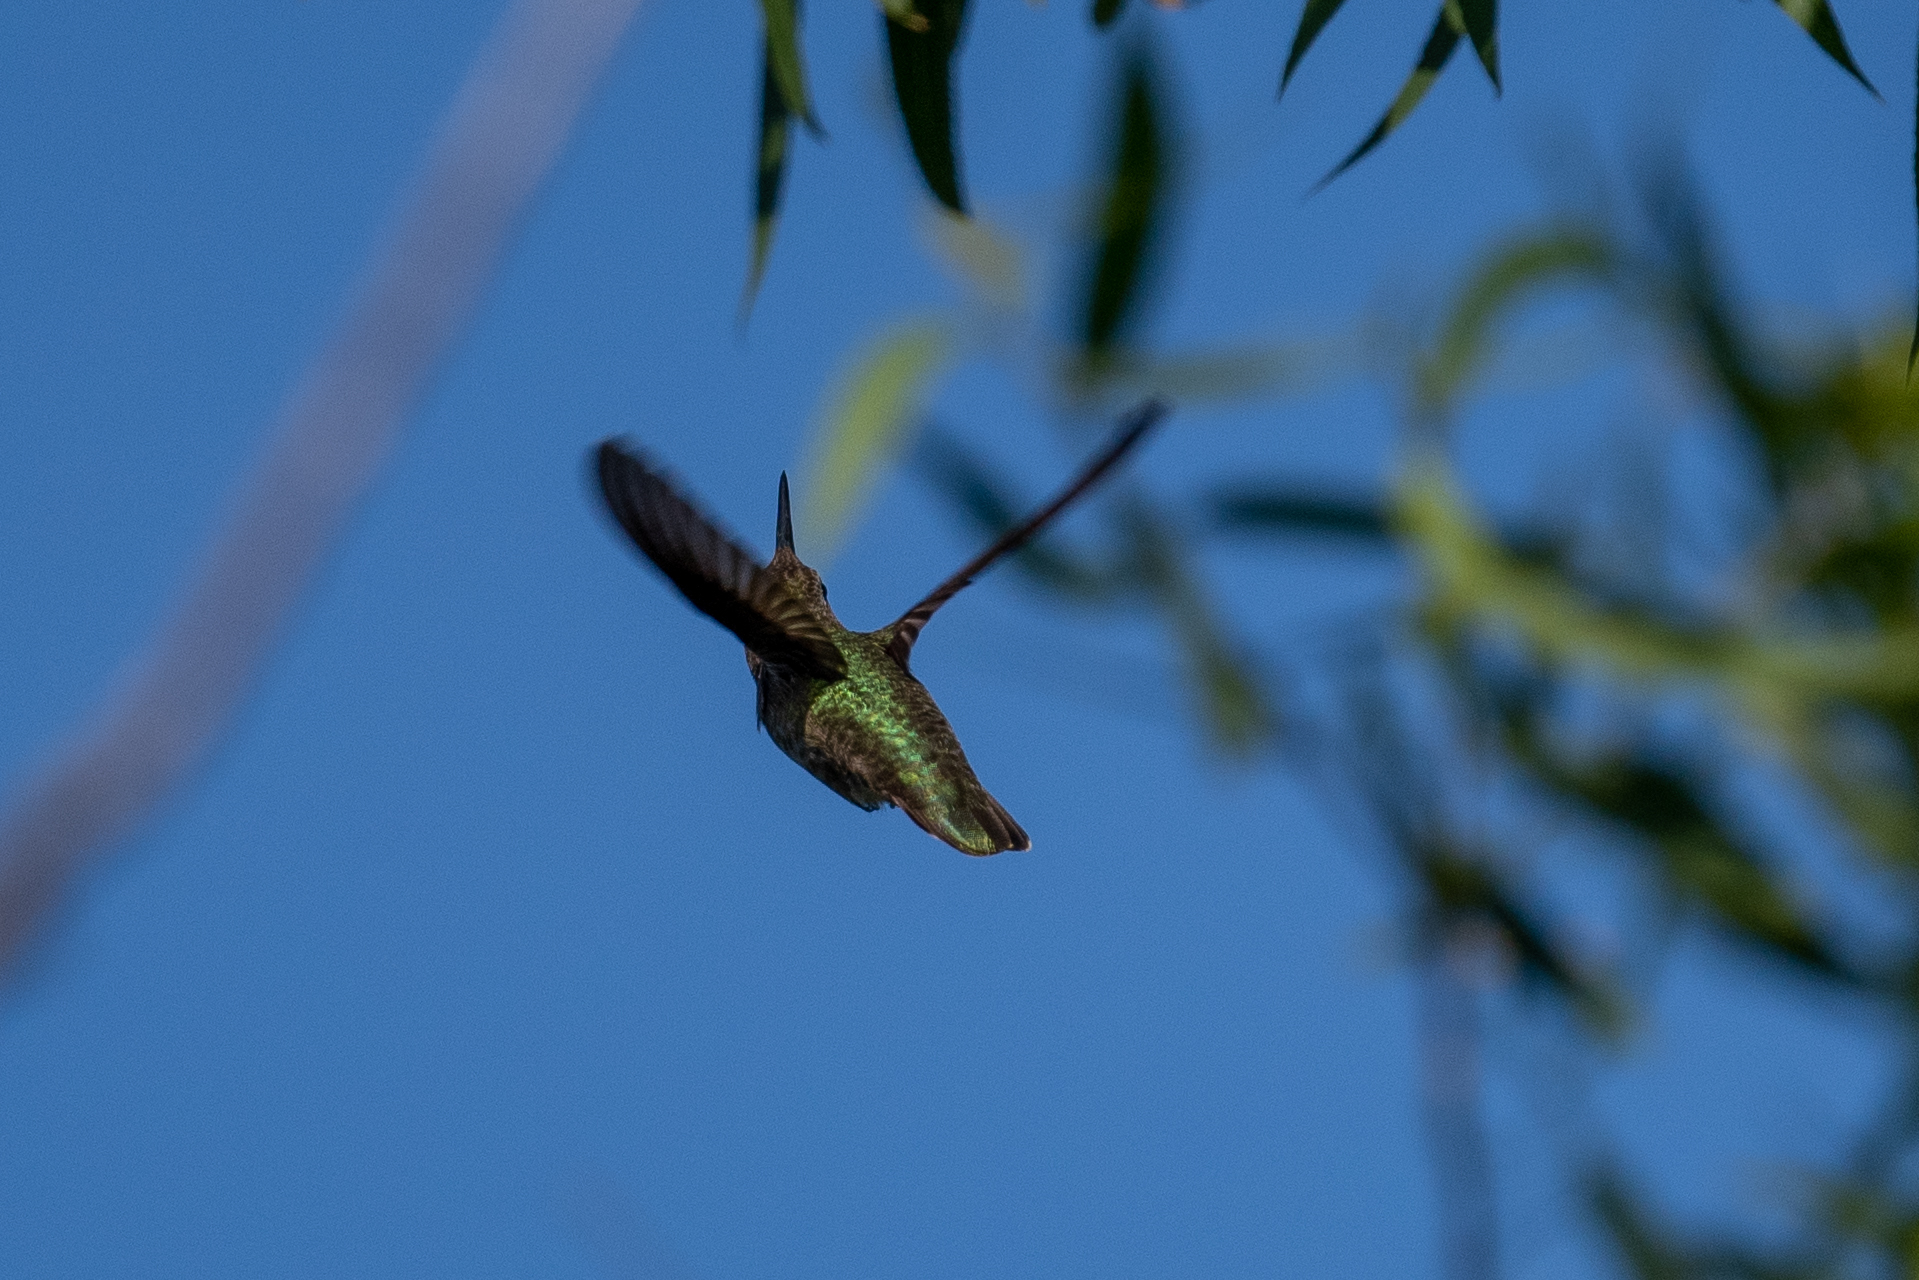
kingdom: Animalia
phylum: Chordata
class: Aves
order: Apodiformes
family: Trochilidae
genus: Calypte
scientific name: Calypte anna
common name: Anna's hummingbird
